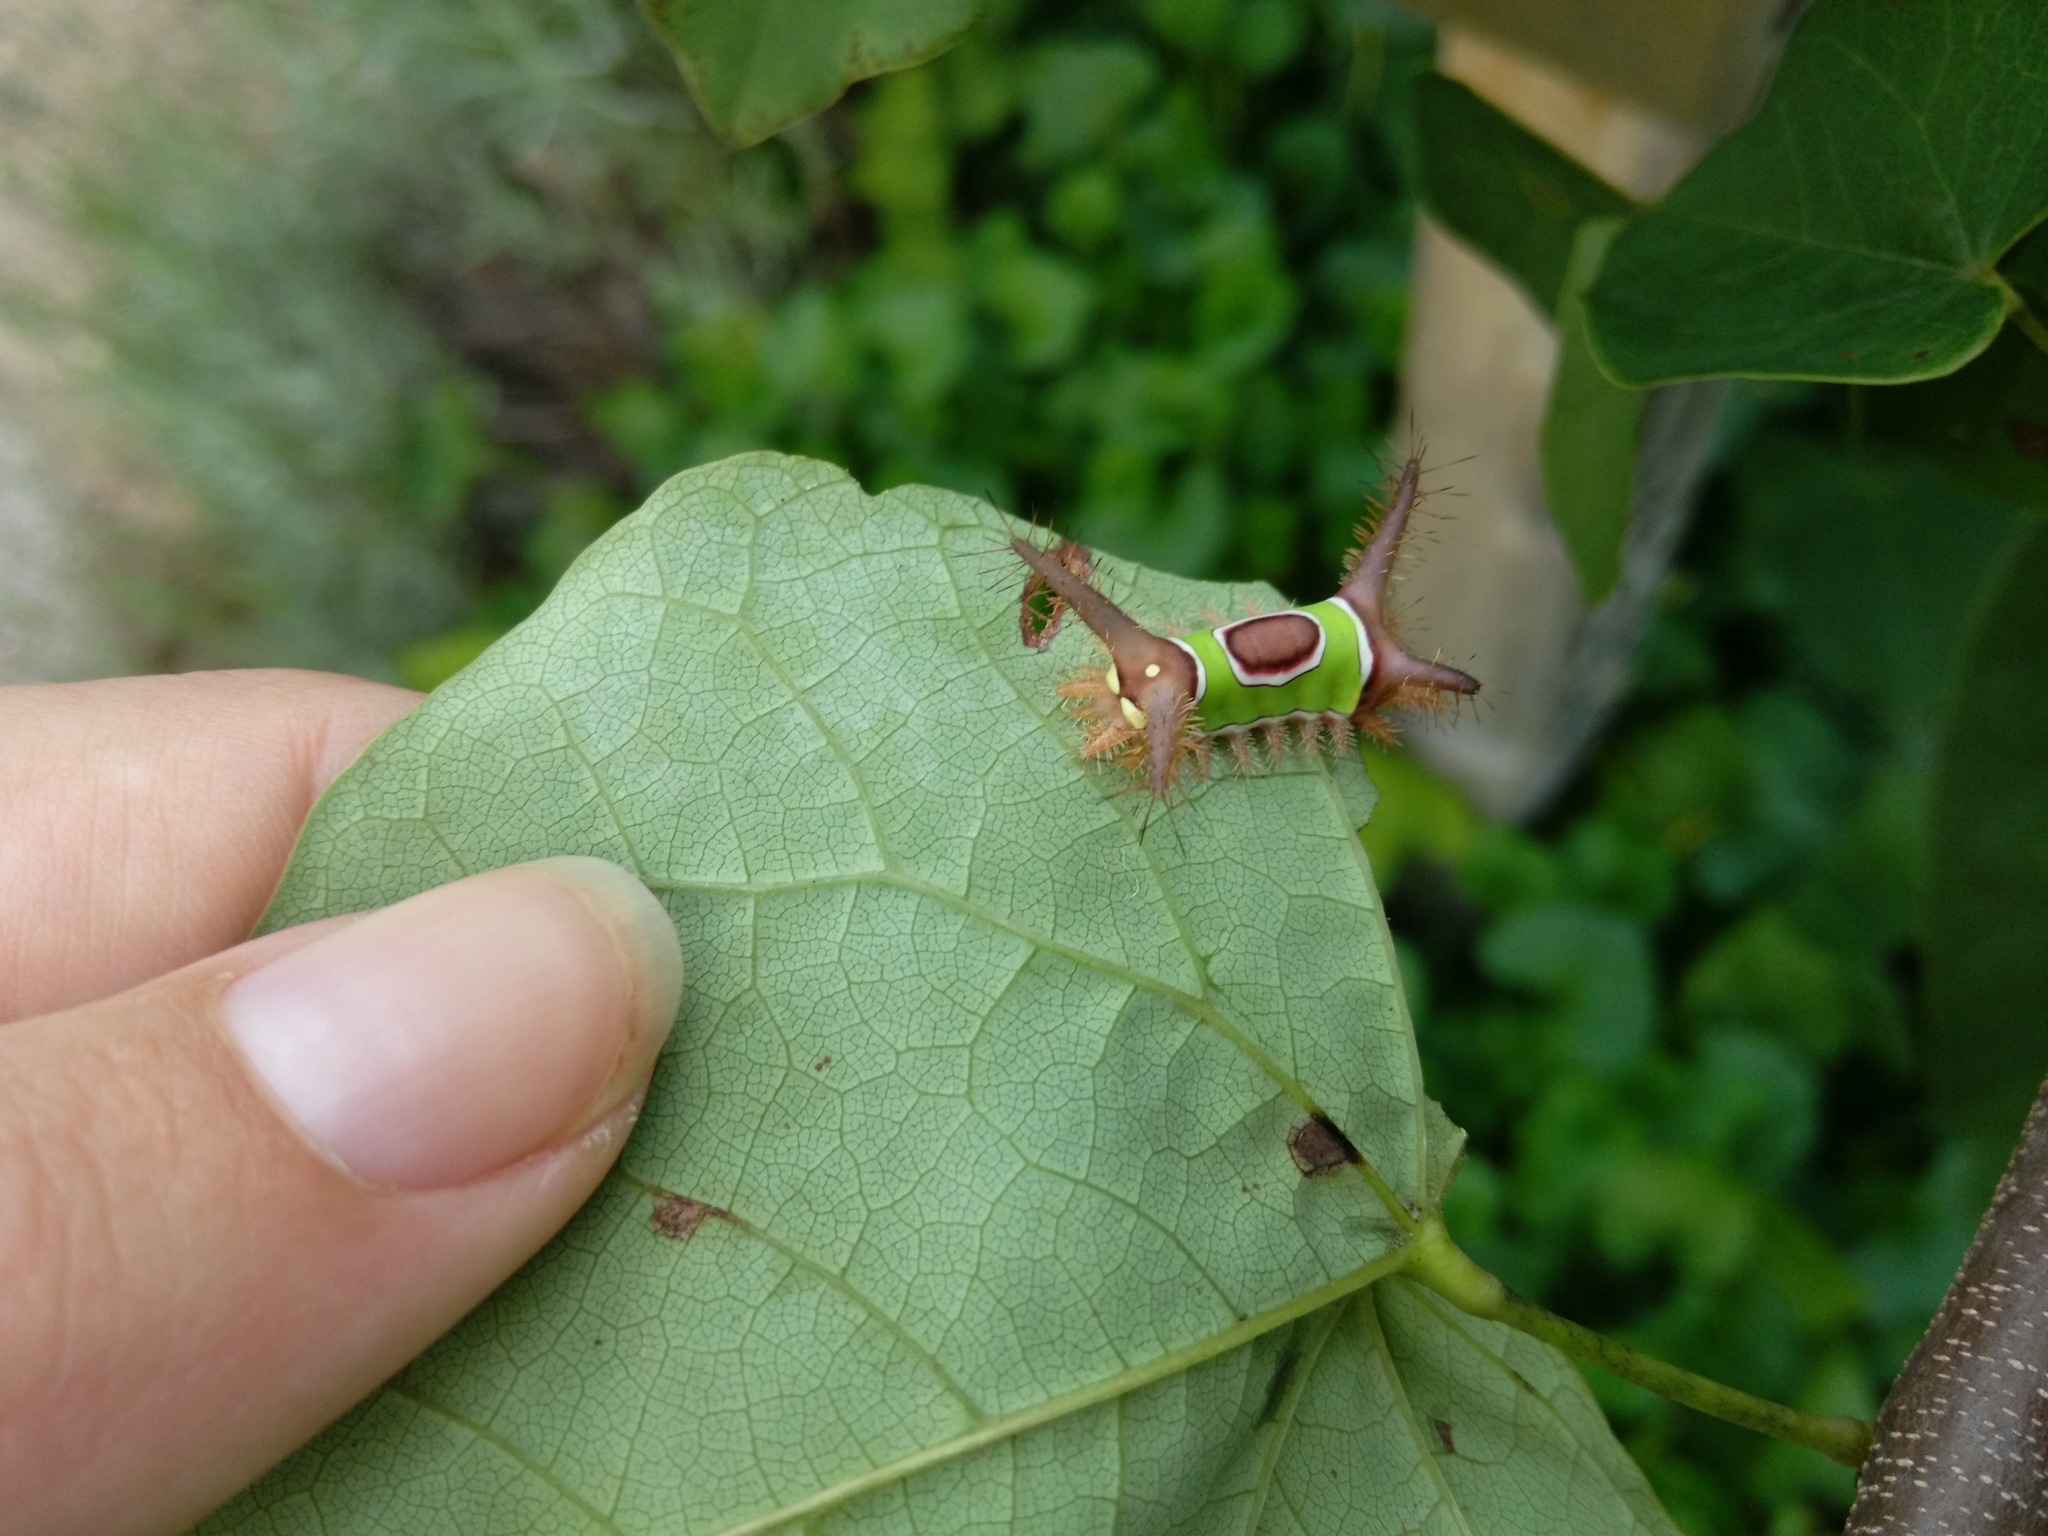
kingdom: Animalia
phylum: Arthropoda
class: Insecta
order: Lepidoptera
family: Limacodidae
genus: Acharia
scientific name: Acharia stimulea
